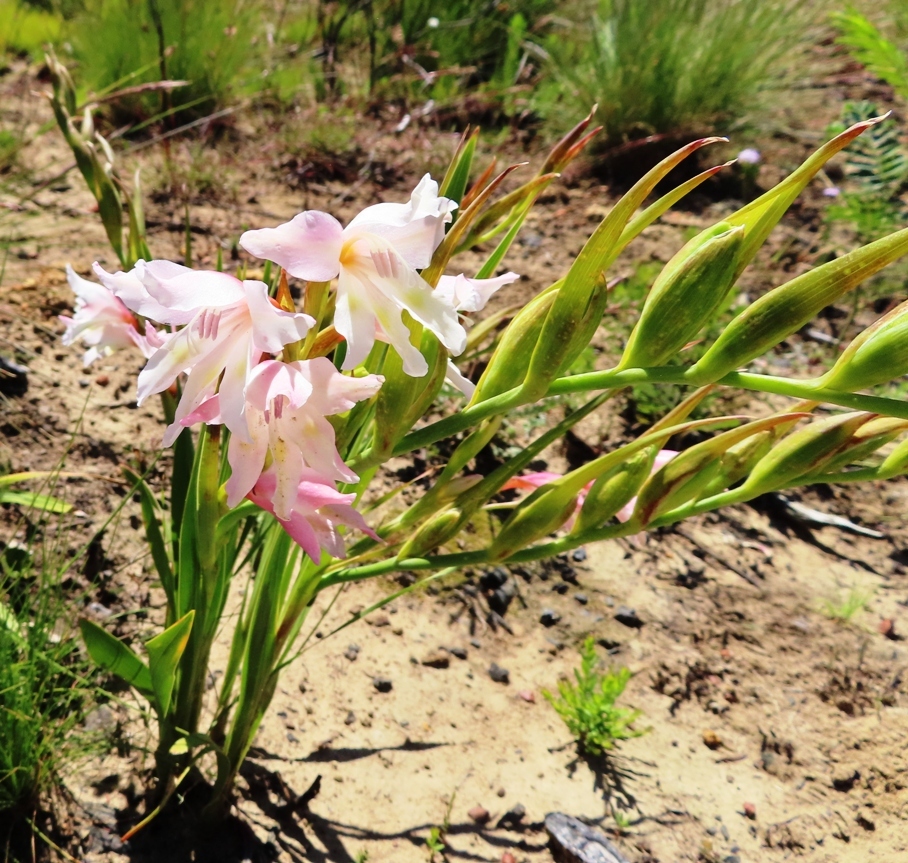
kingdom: Plantae
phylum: Tracheophyta
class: Liliopsida
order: Asparagales
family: Iridaceae
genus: Gladiolus
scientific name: Gladiolus carneus
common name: Painted-lady
